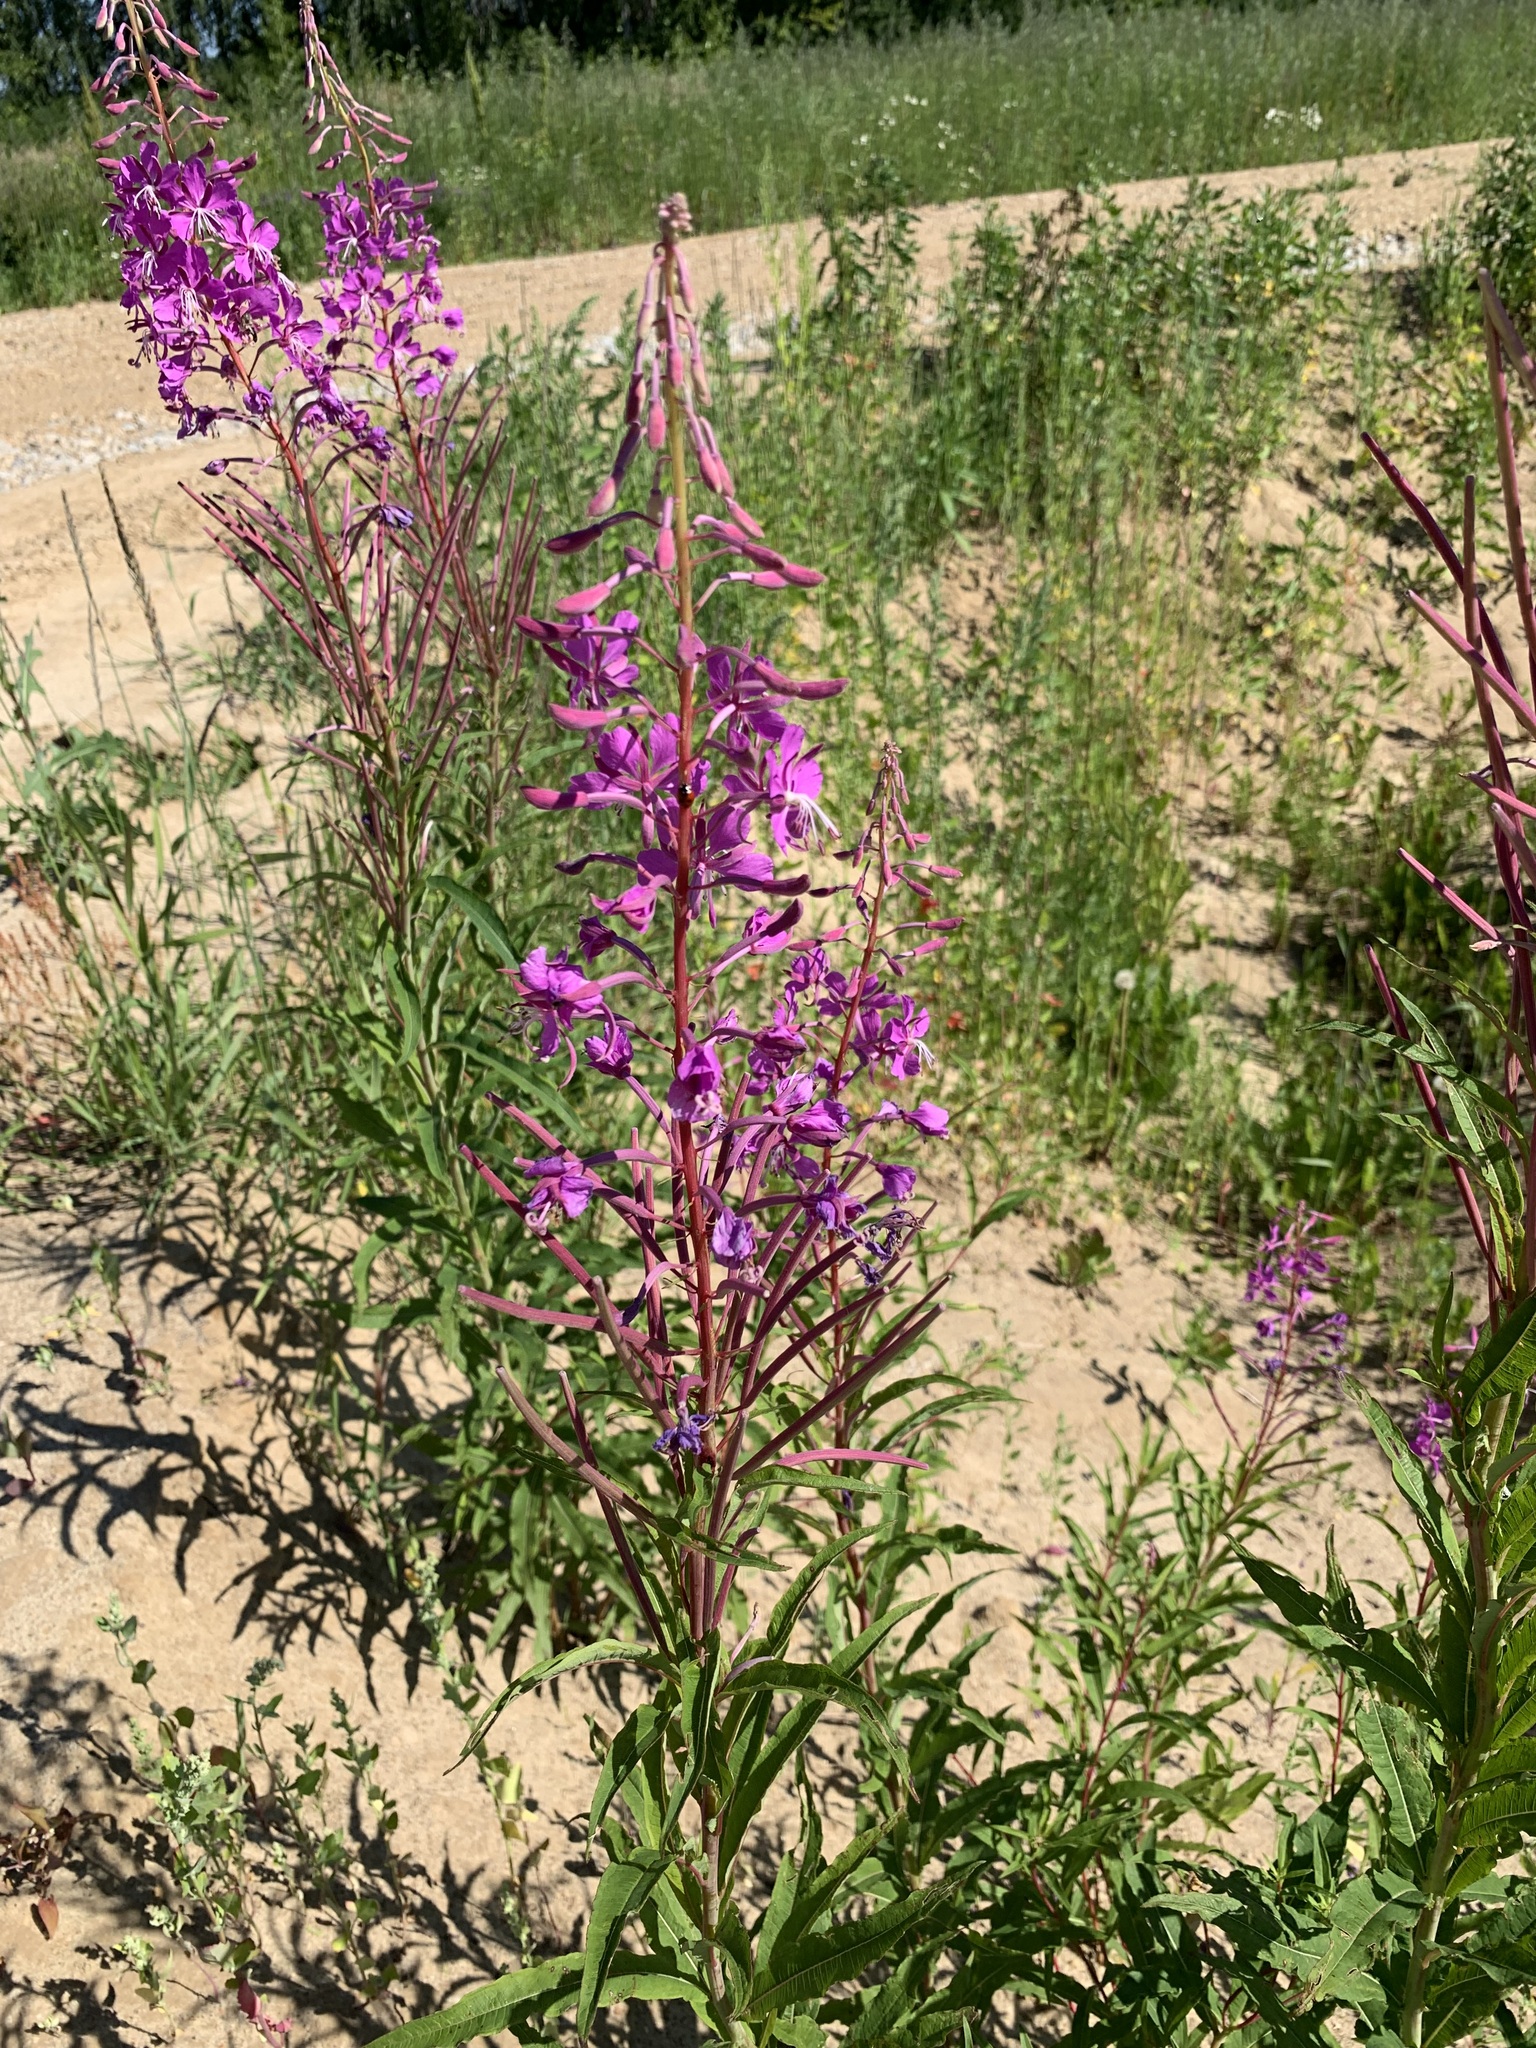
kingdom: Plantae
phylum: Tracheophyta
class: Magnoliopsida
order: Myrtales
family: Onagraceae
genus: Chamaenerion
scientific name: Chamaenerion angustifolium
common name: Fireweed
